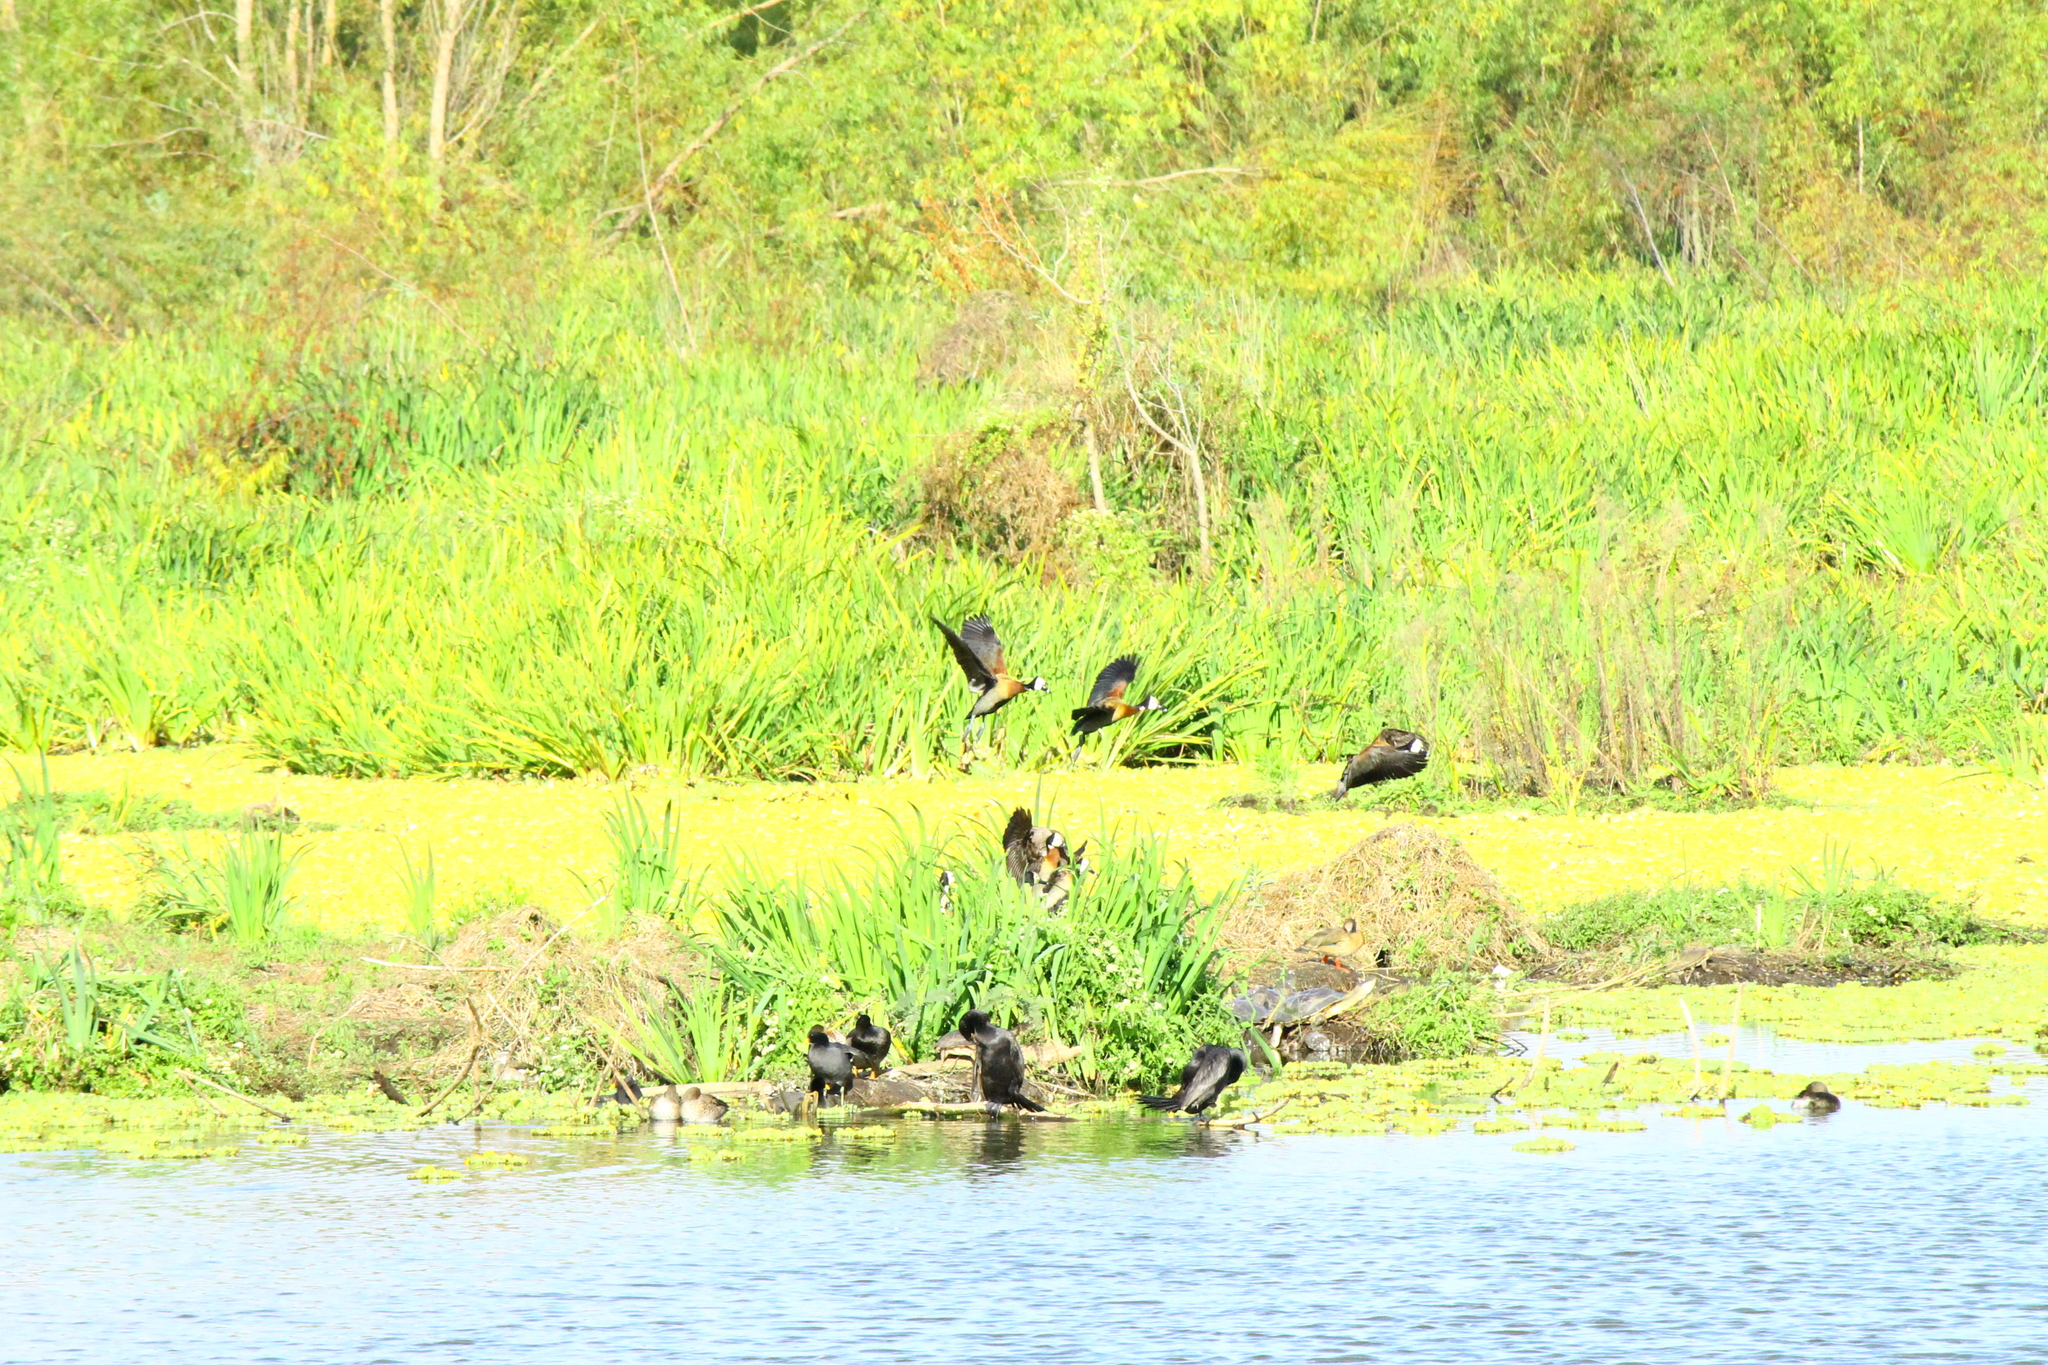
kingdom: Animalia
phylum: Chordata
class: Aves
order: Anseriformes
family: Anatidae
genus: Dendrocygna
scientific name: Dendrocygna viduata
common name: White-faced whistling duck
